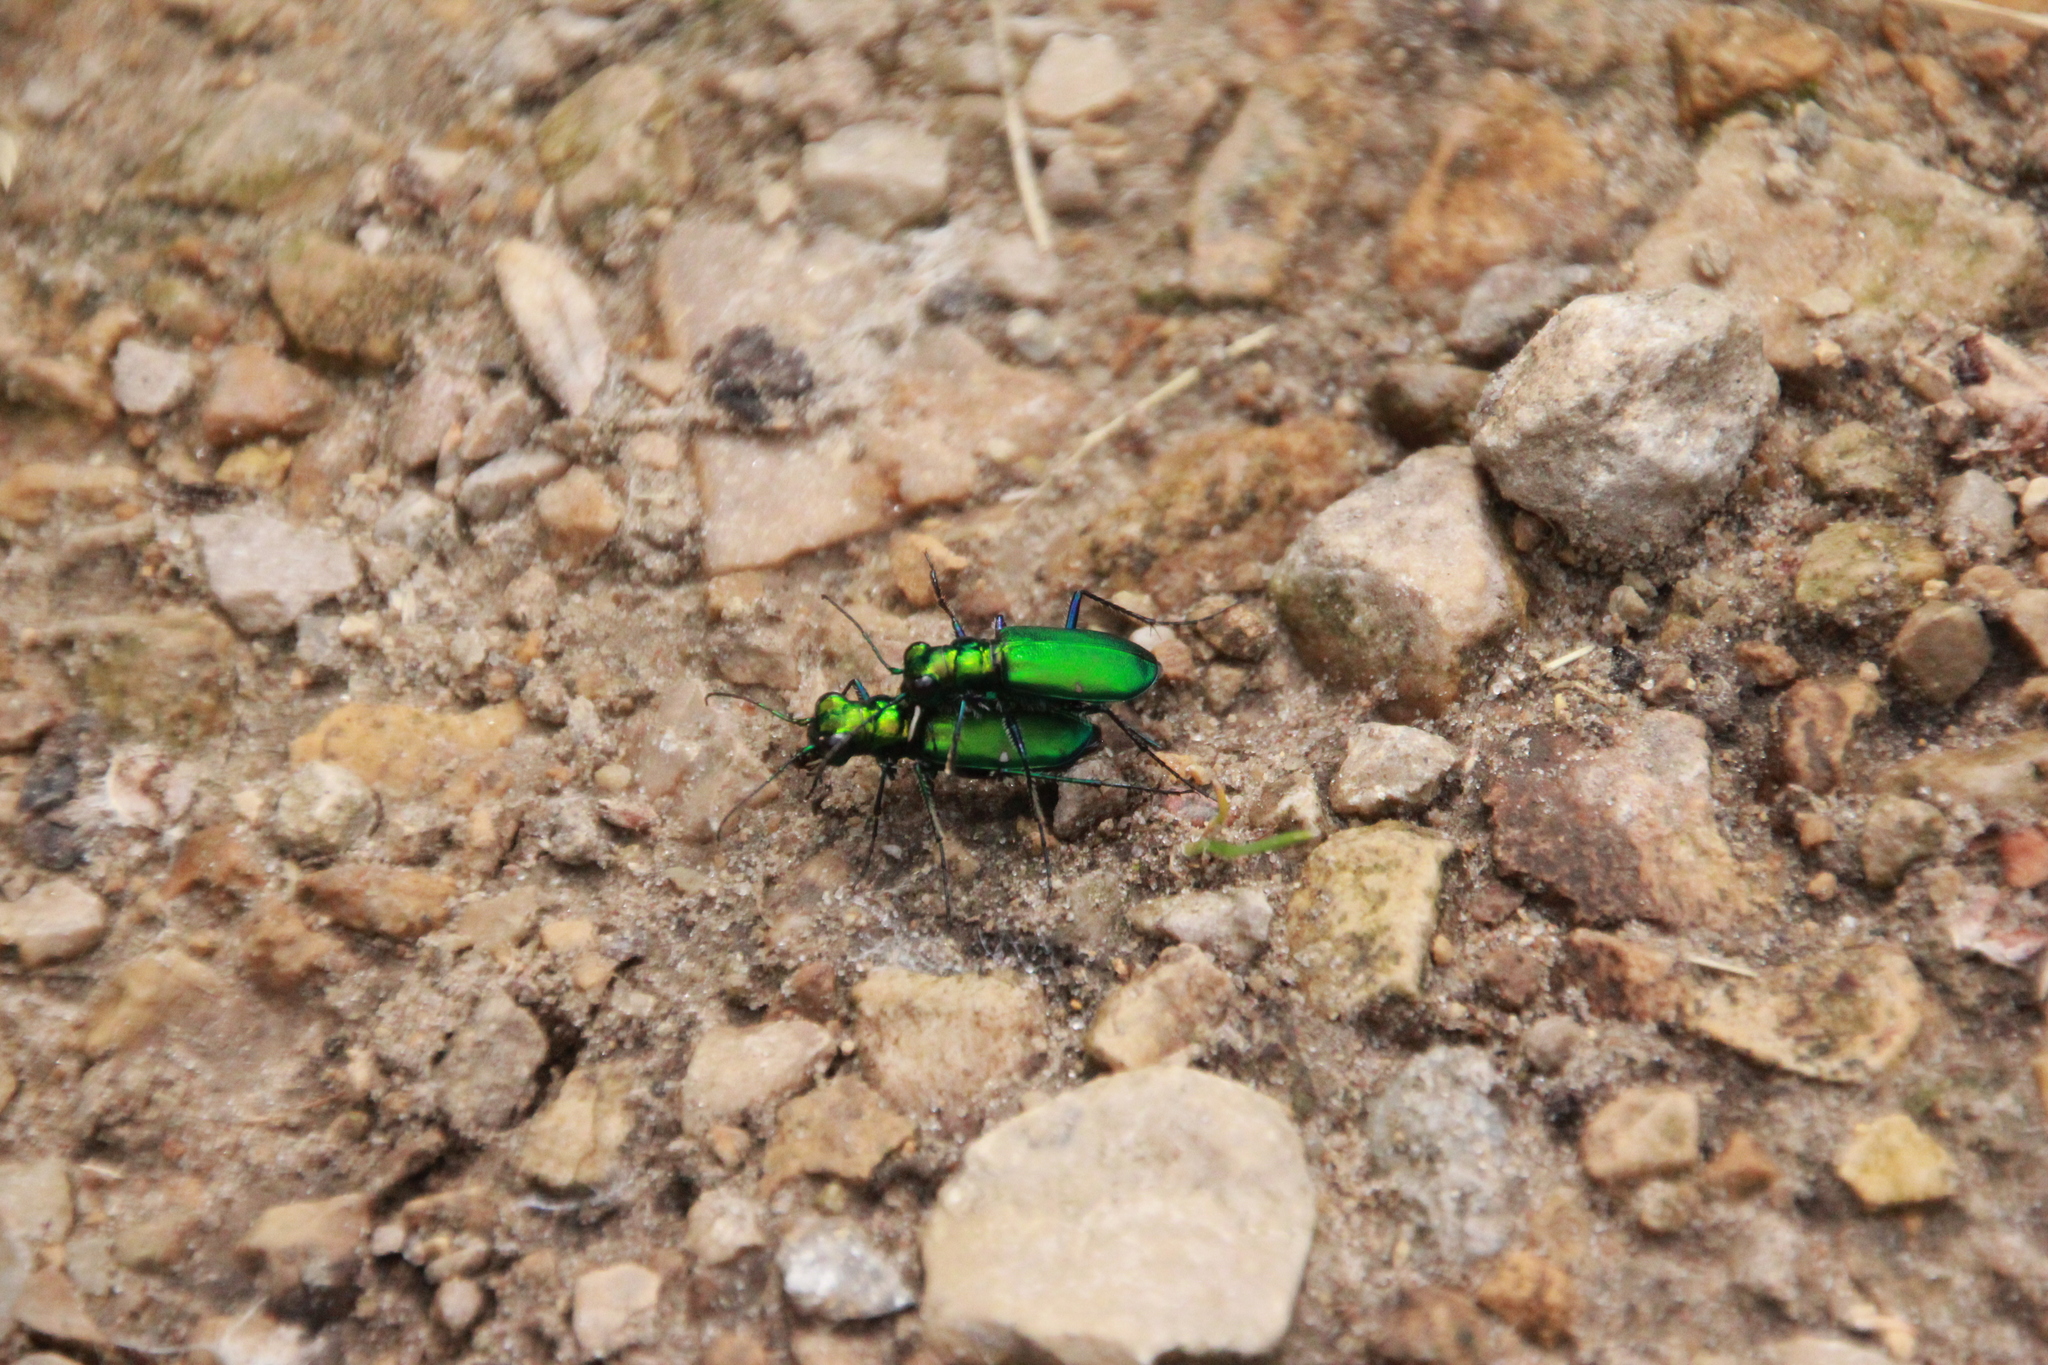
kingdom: Animalia
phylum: Arthropoda
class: Insecta
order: Coleoptera
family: Carabidae
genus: Cicindela
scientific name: Cicindela sexguttata
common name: Six-spotted tiger beetle
